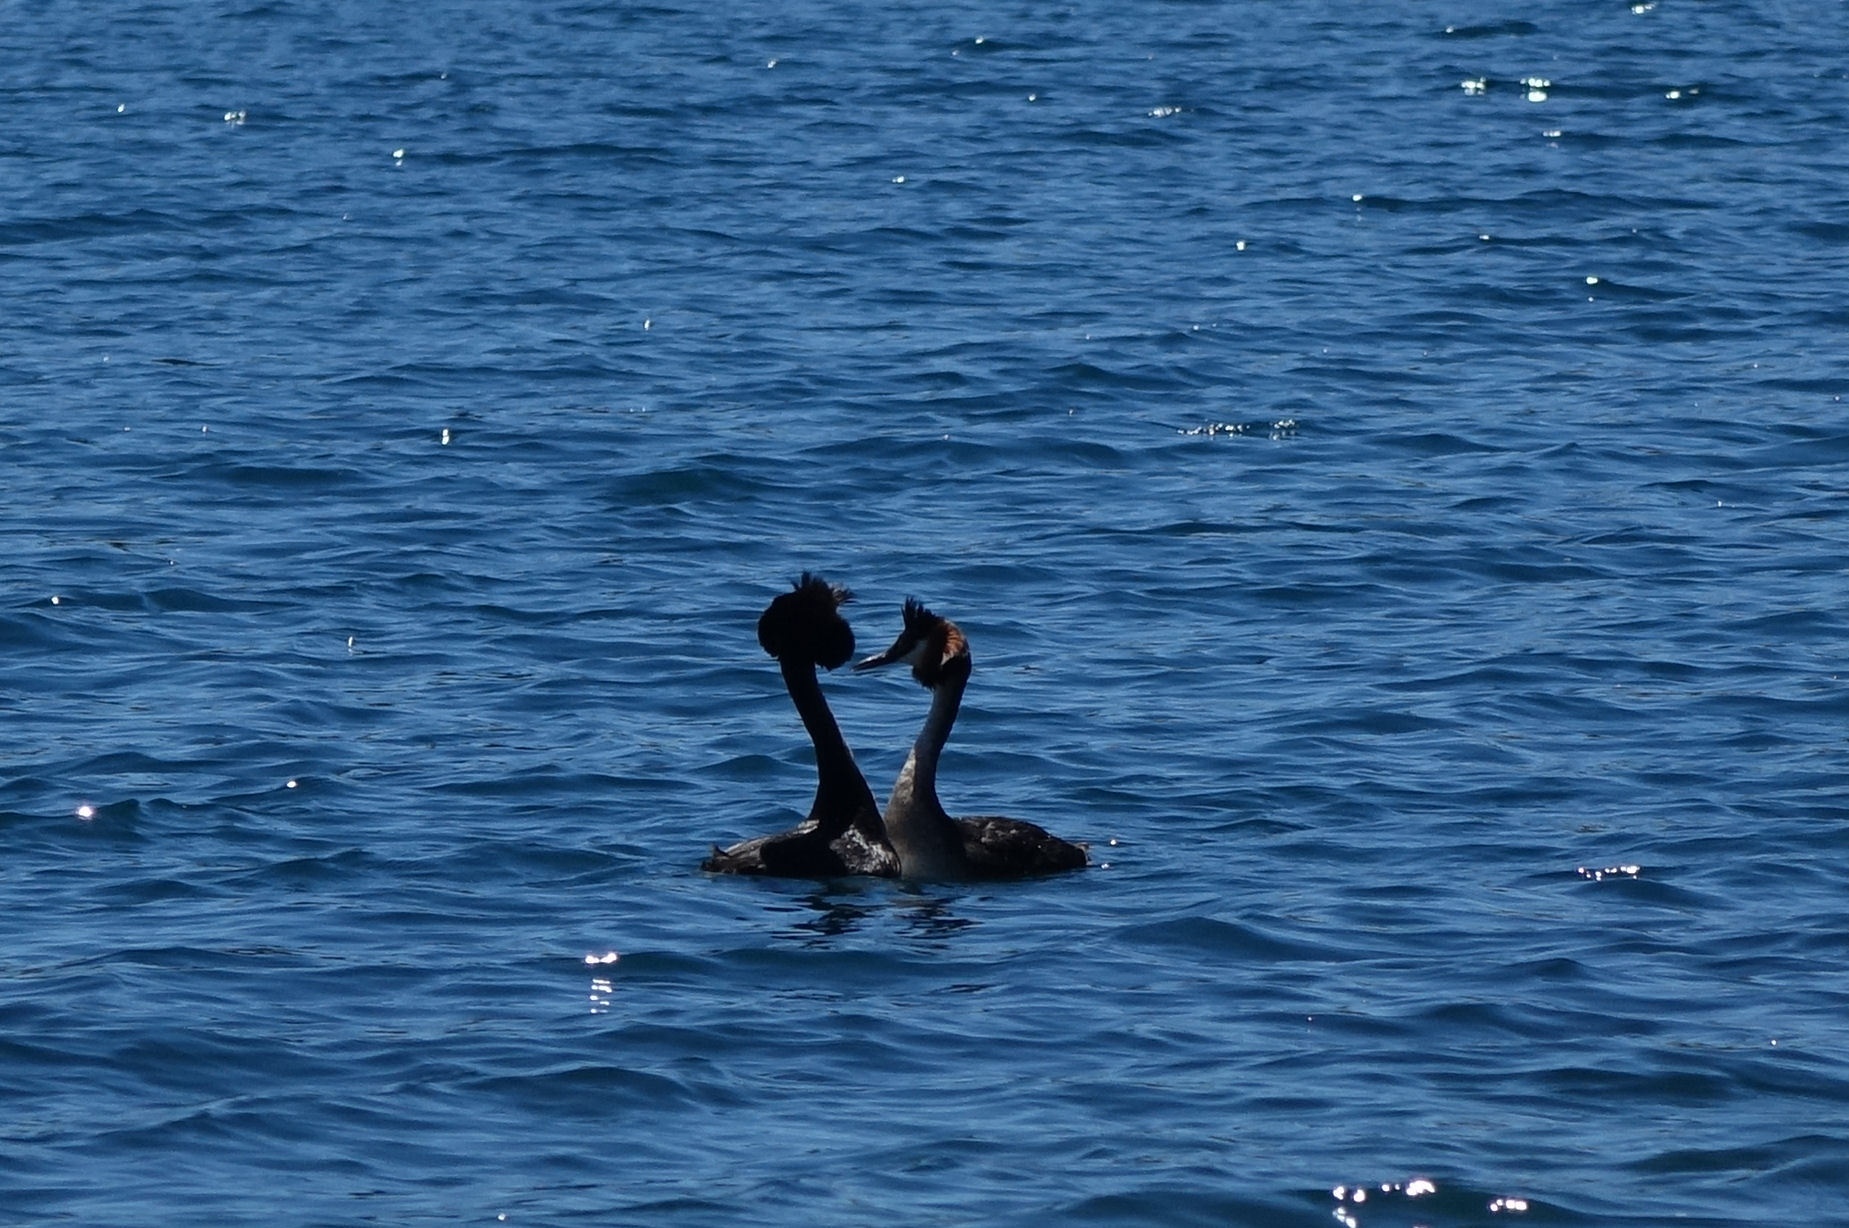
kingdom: Animalia
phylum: Chordata
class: Aves
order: Podicipediformes
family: Podicipedidae
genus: Podiceps
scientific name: Podiceps cristatus
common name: Great crested grebe
